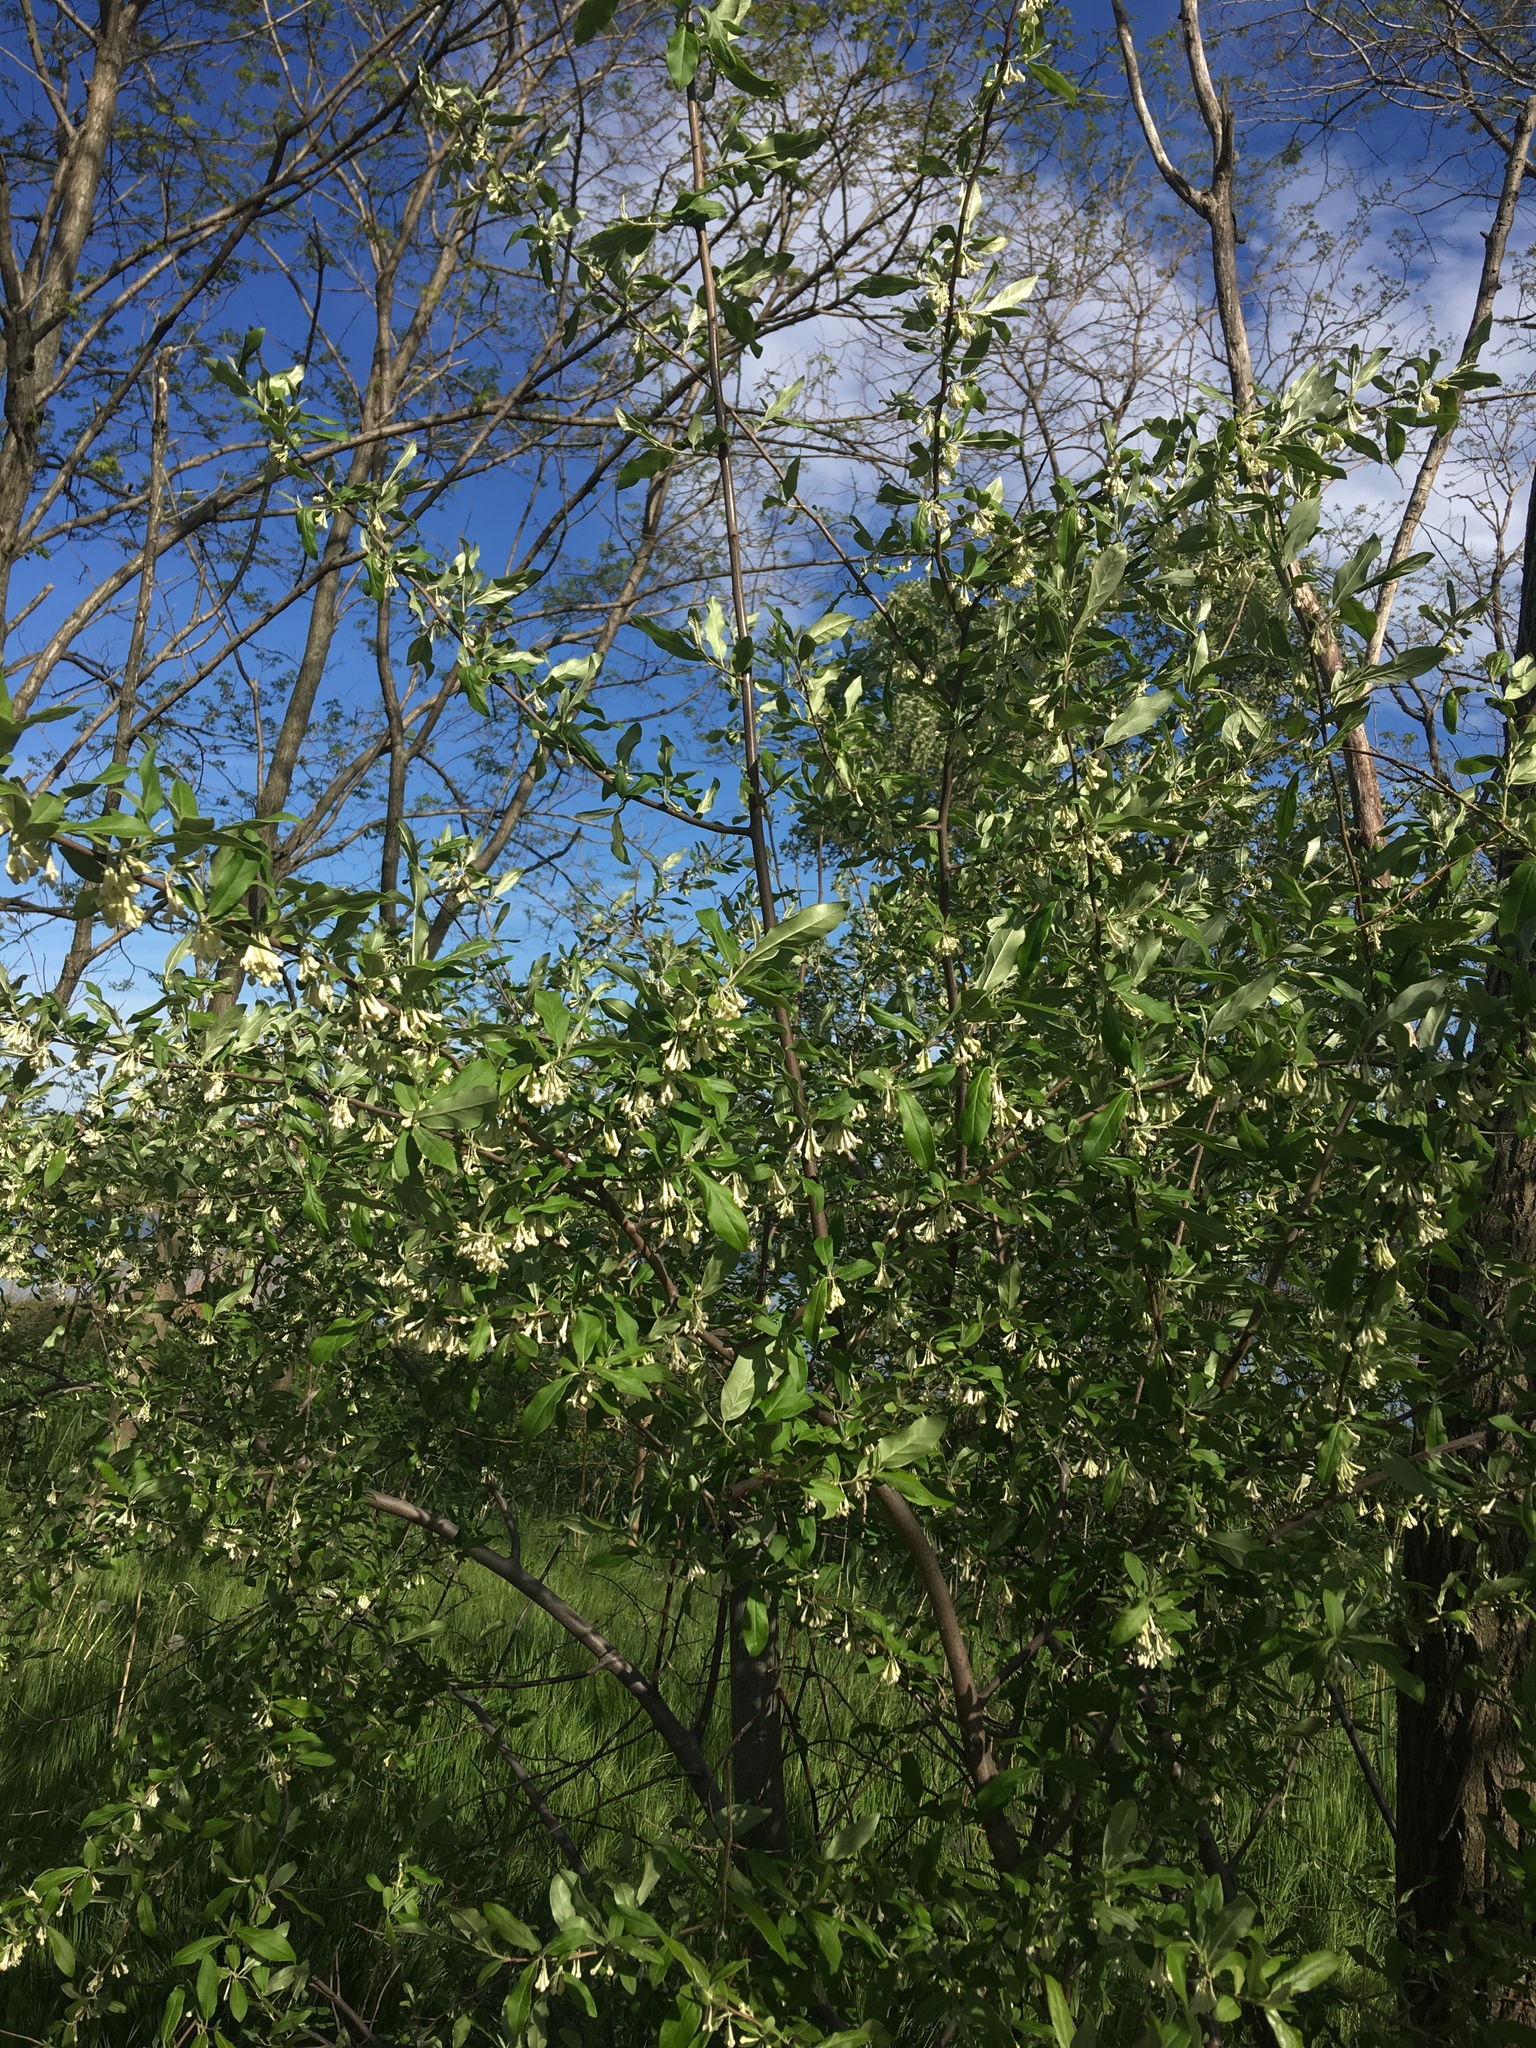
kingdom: Plantae
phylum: Tracheophyta
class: Magnoliopsida
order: Rosales
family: Elaeagnaceae
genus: Elaeagnus
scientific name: Elaeagnus umbellata
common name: Autumn olive
